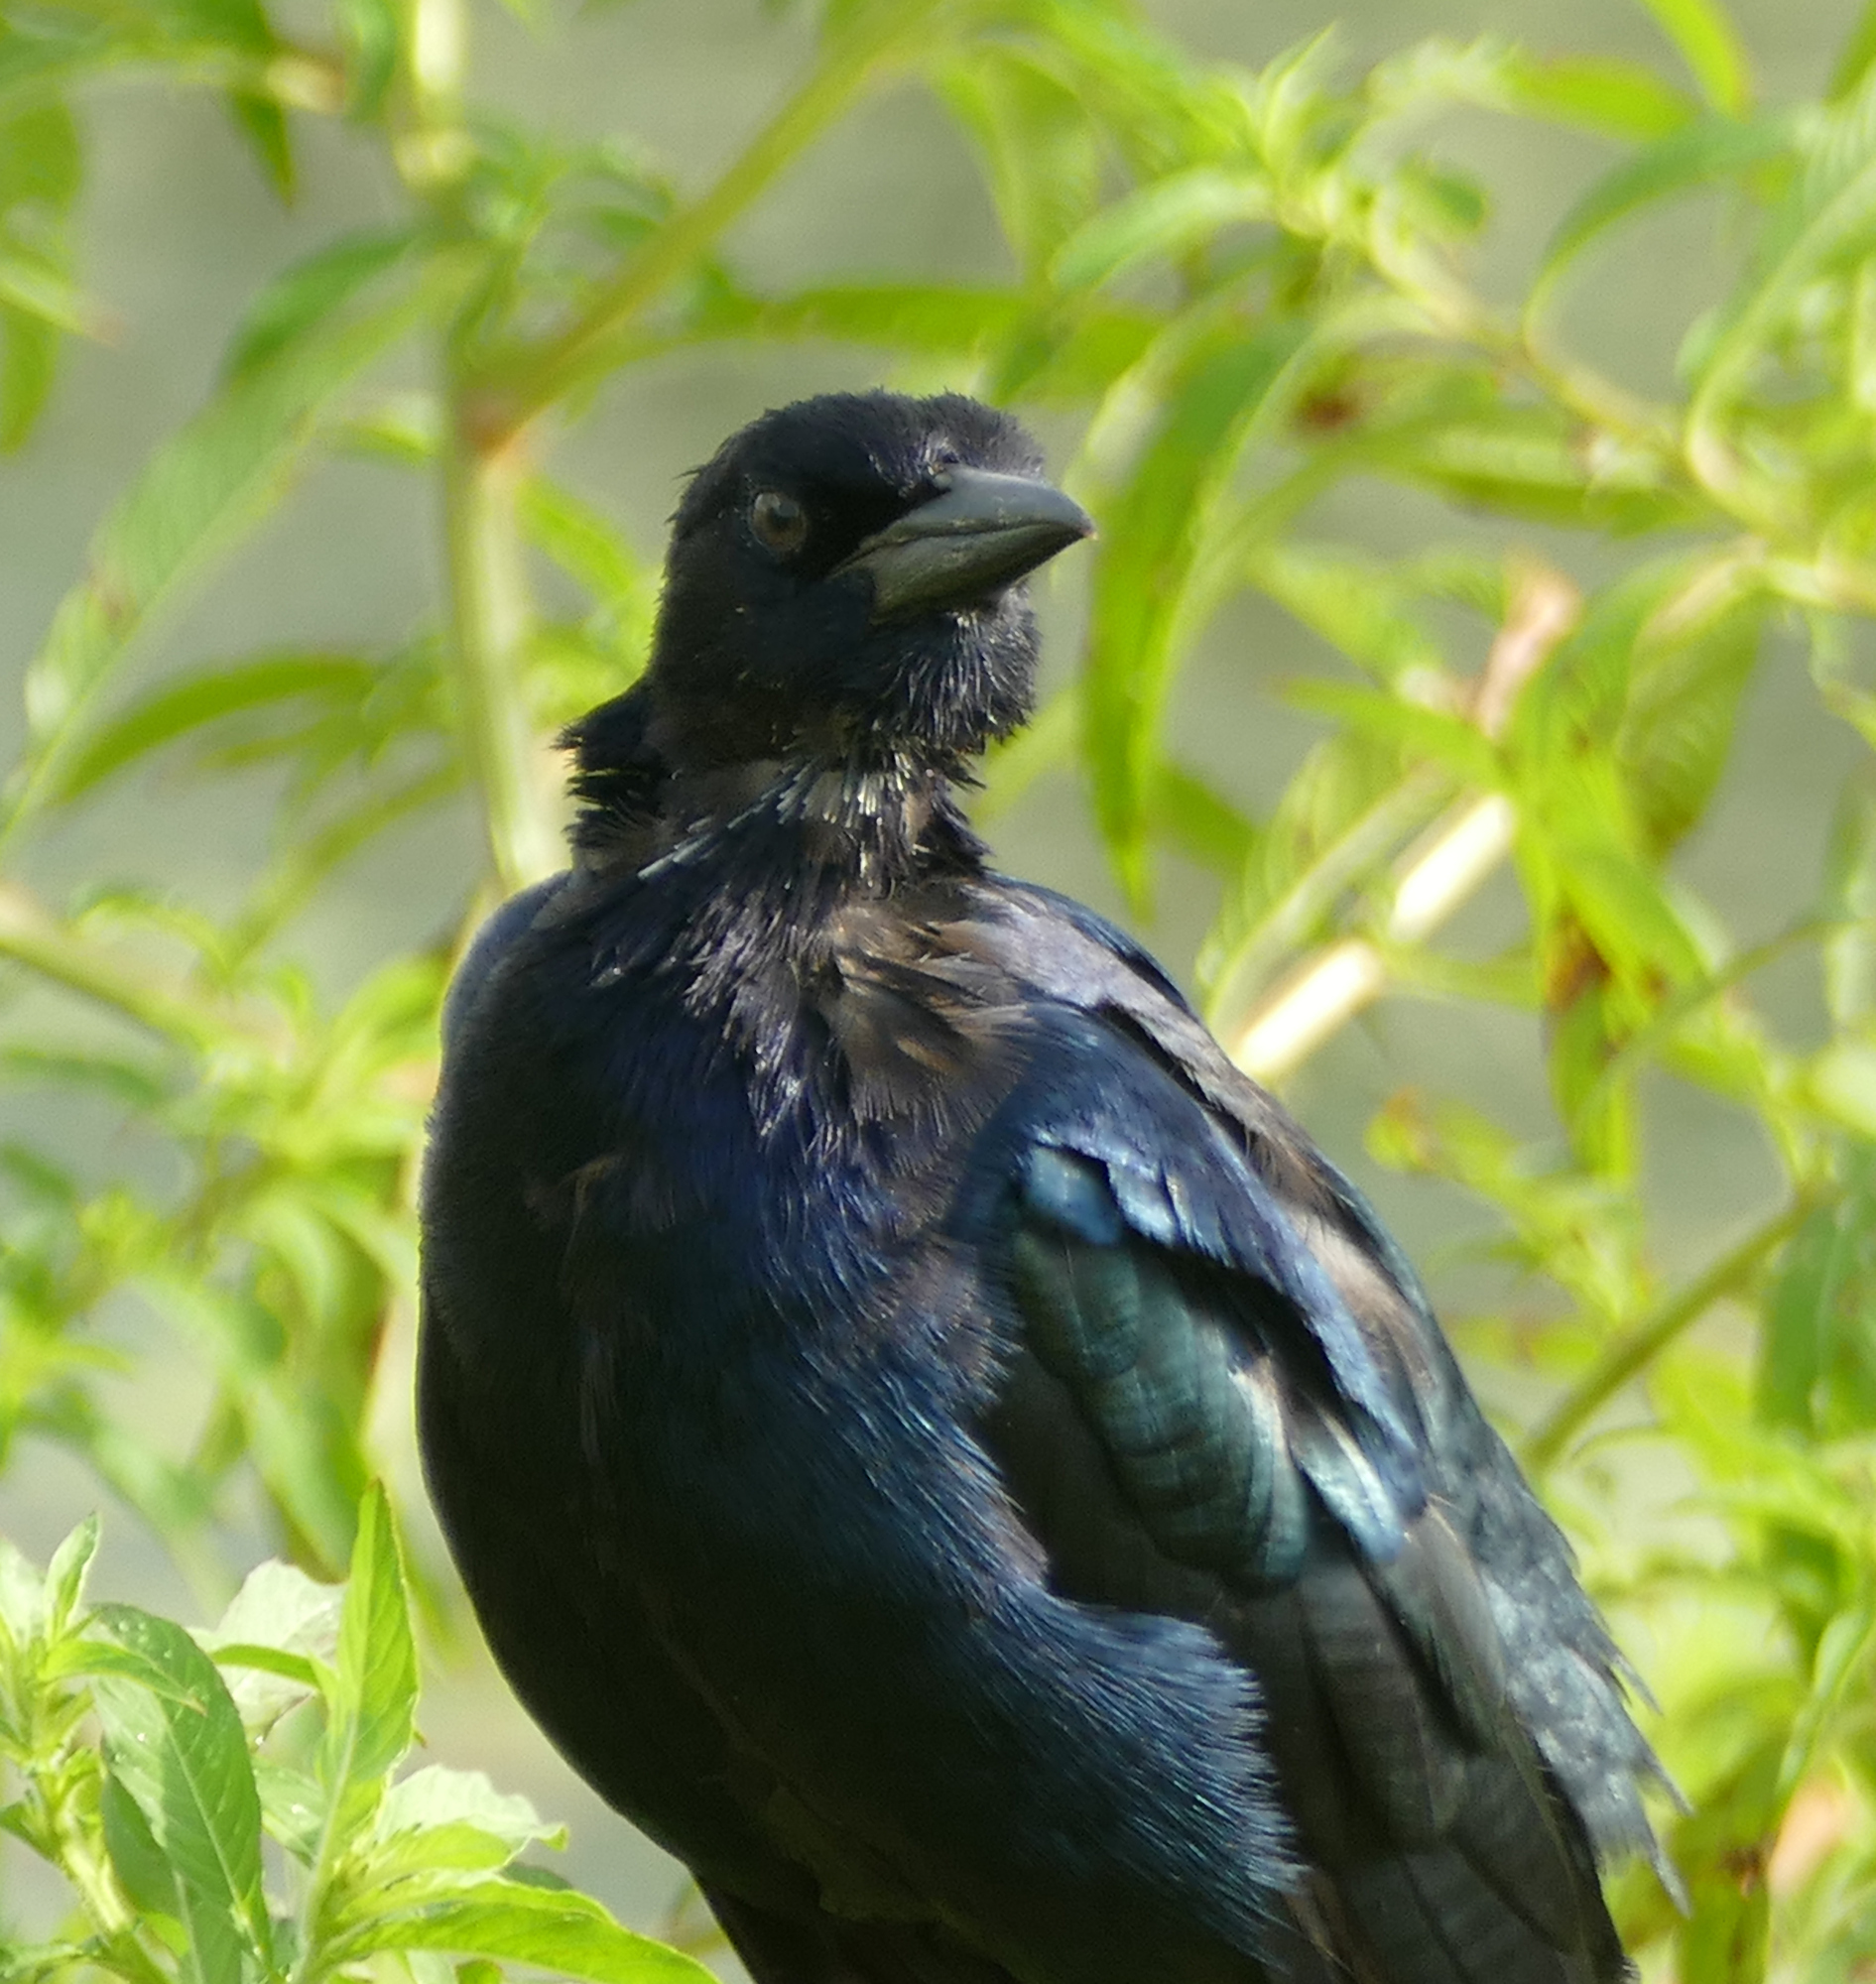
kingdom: Animalia
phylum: Chordata
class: Aves
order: Passeriformes
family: Icteridae
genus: Quiscalus
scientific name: Quiscalus major
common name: Boat-tailed grackle
